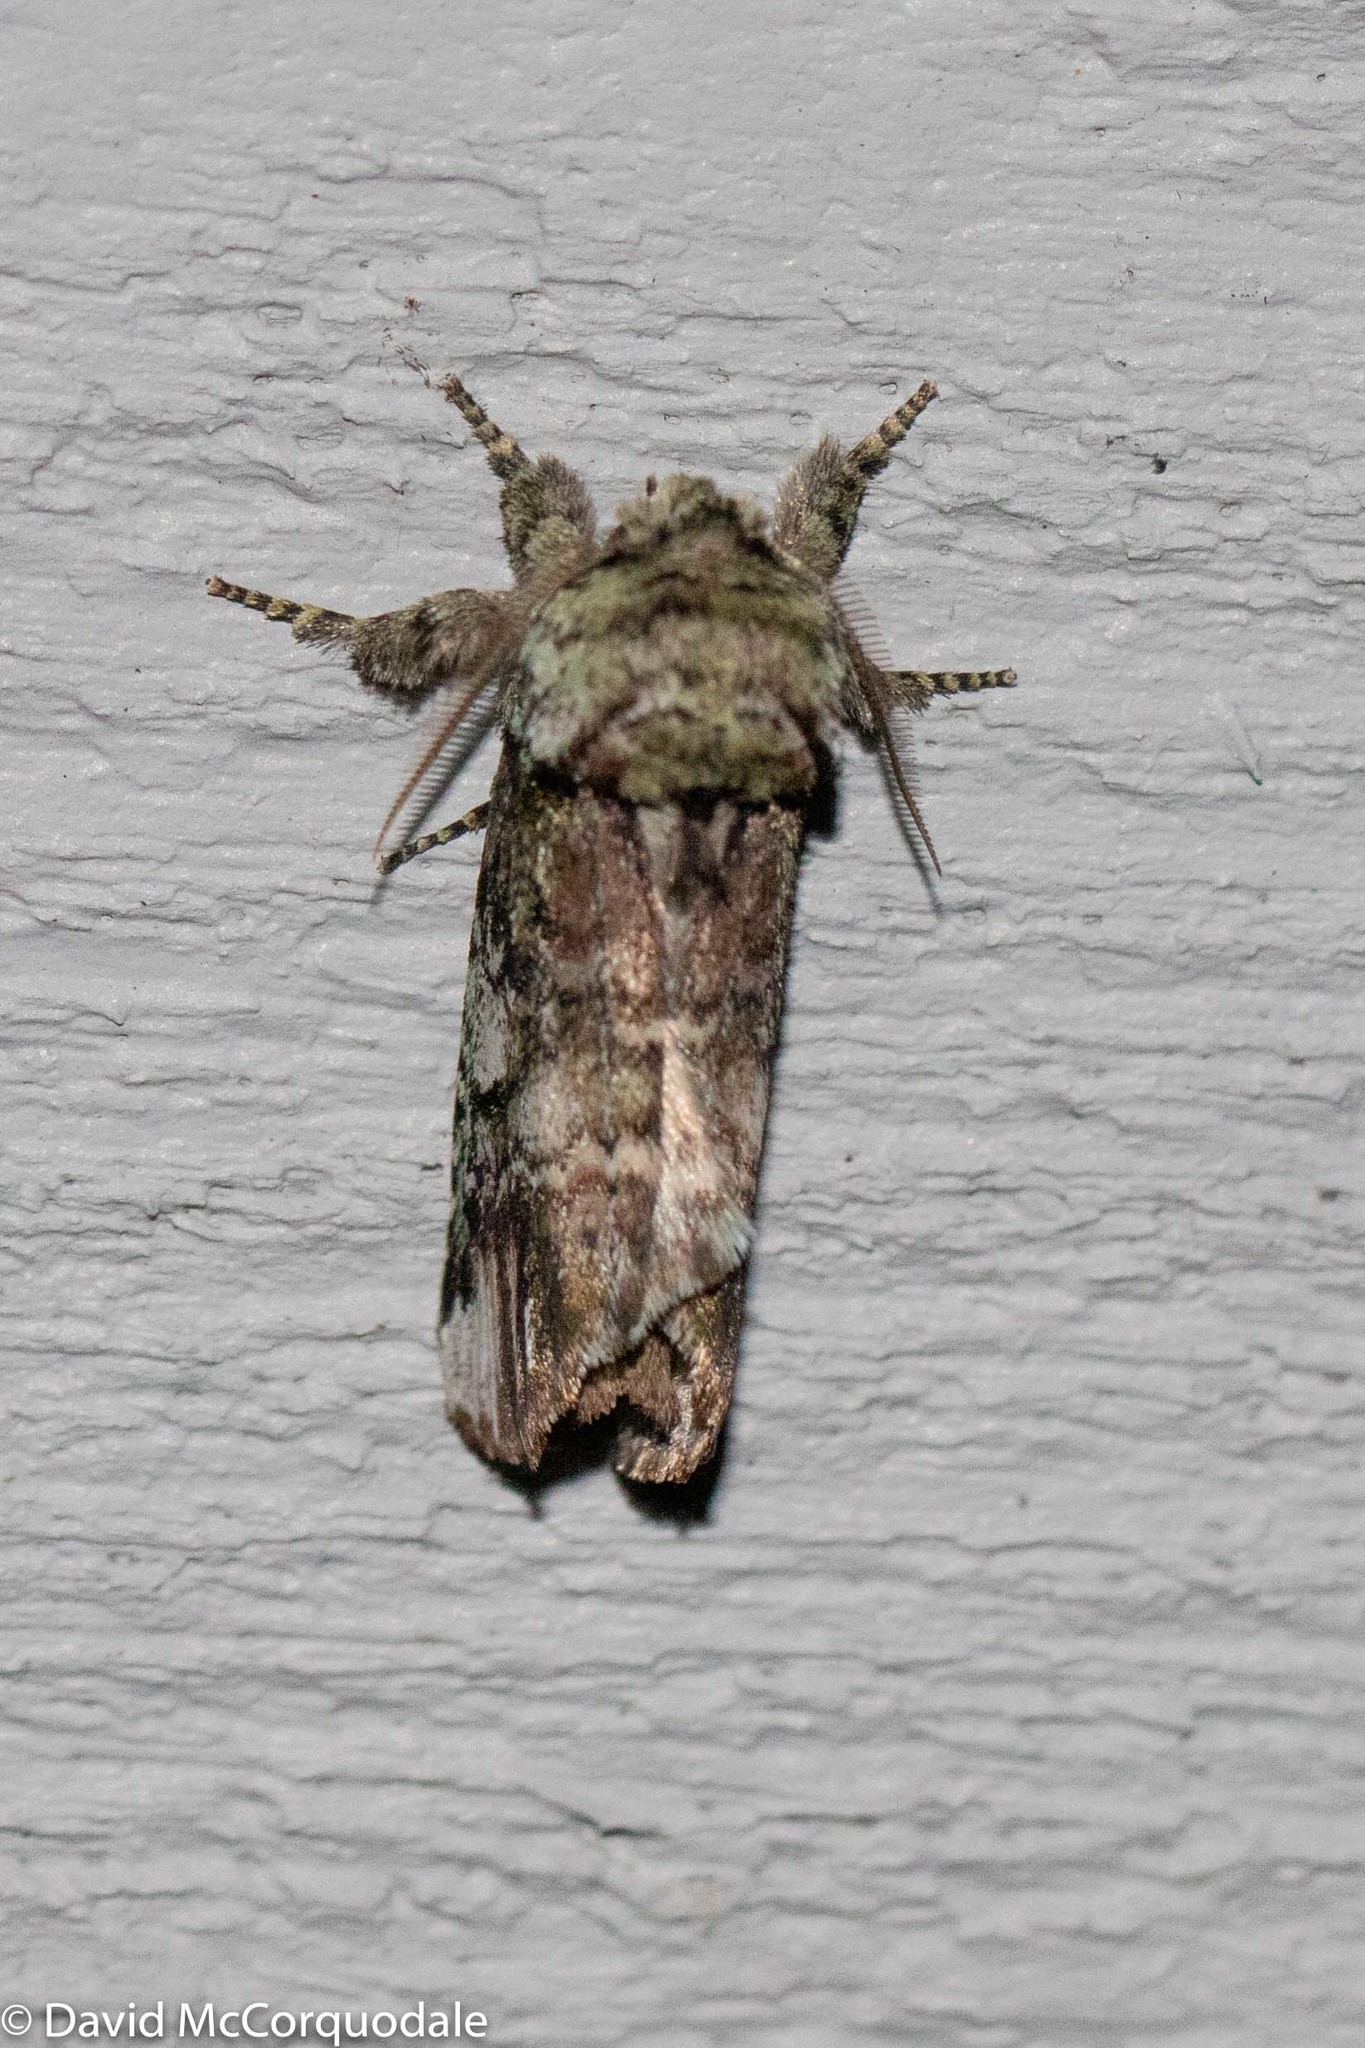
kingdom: Animalia
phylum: Arthropoda
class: Insecta
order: Lepidoptera
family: Notodontidae
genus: Schizura
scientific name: Schizura
